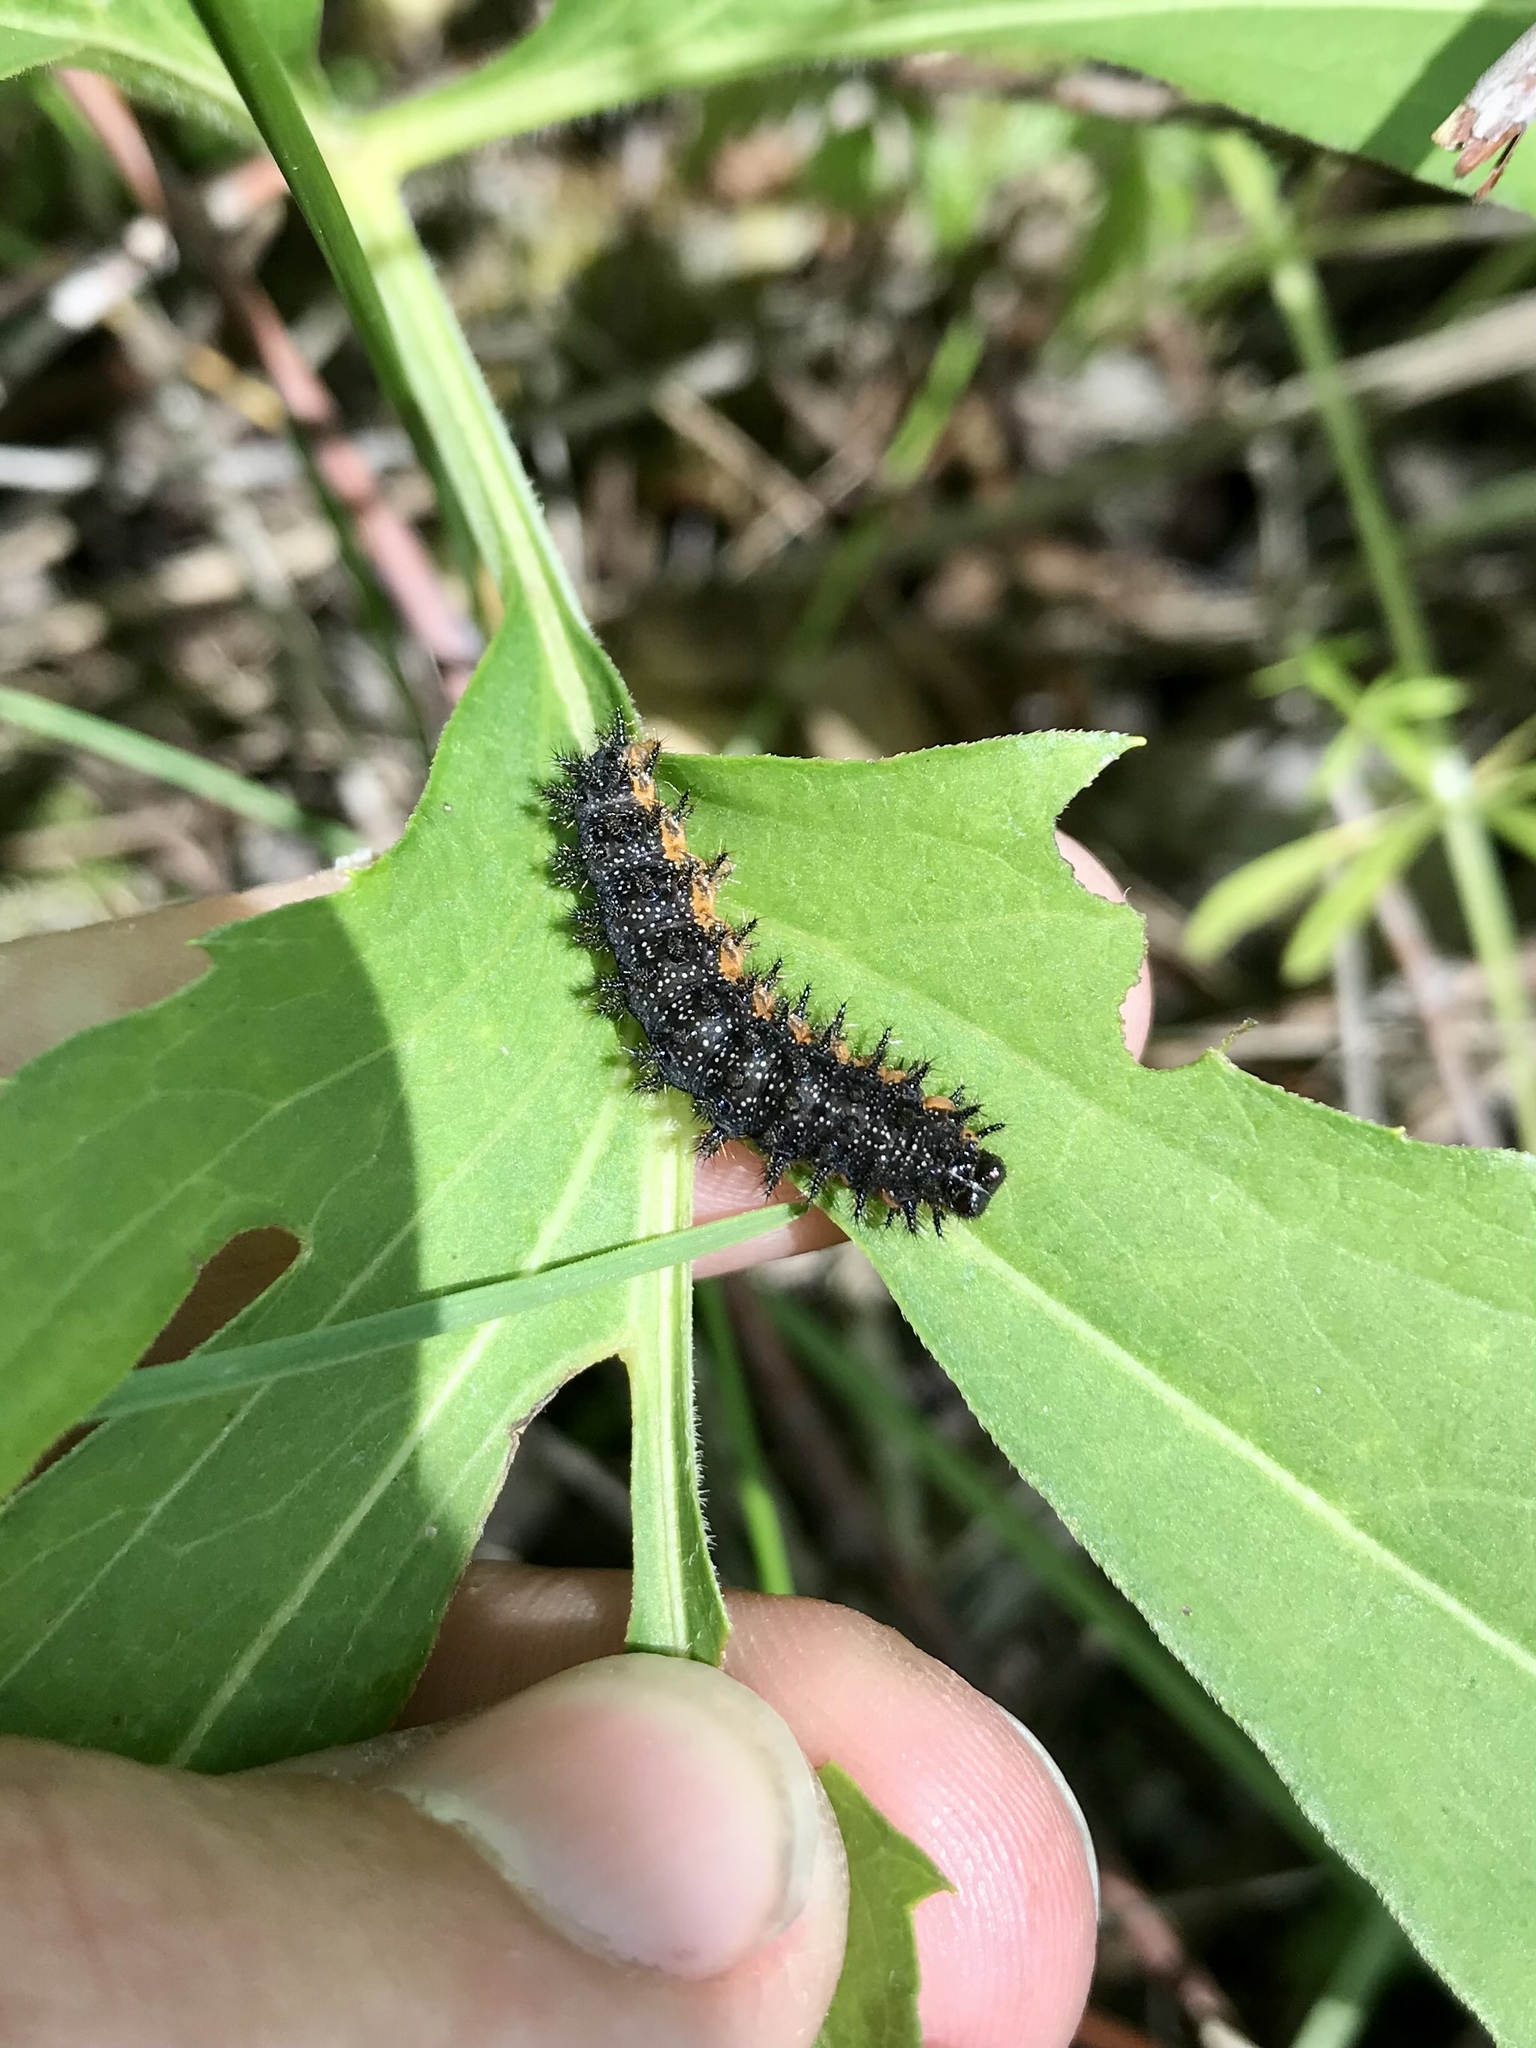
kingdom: Animalia
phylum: Arthropoda
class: Insecta
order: Lepidoptera
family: Nymphalidae
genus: Chlosyne
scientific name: Chlosyne nycteis
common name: Silvery checkerspot
